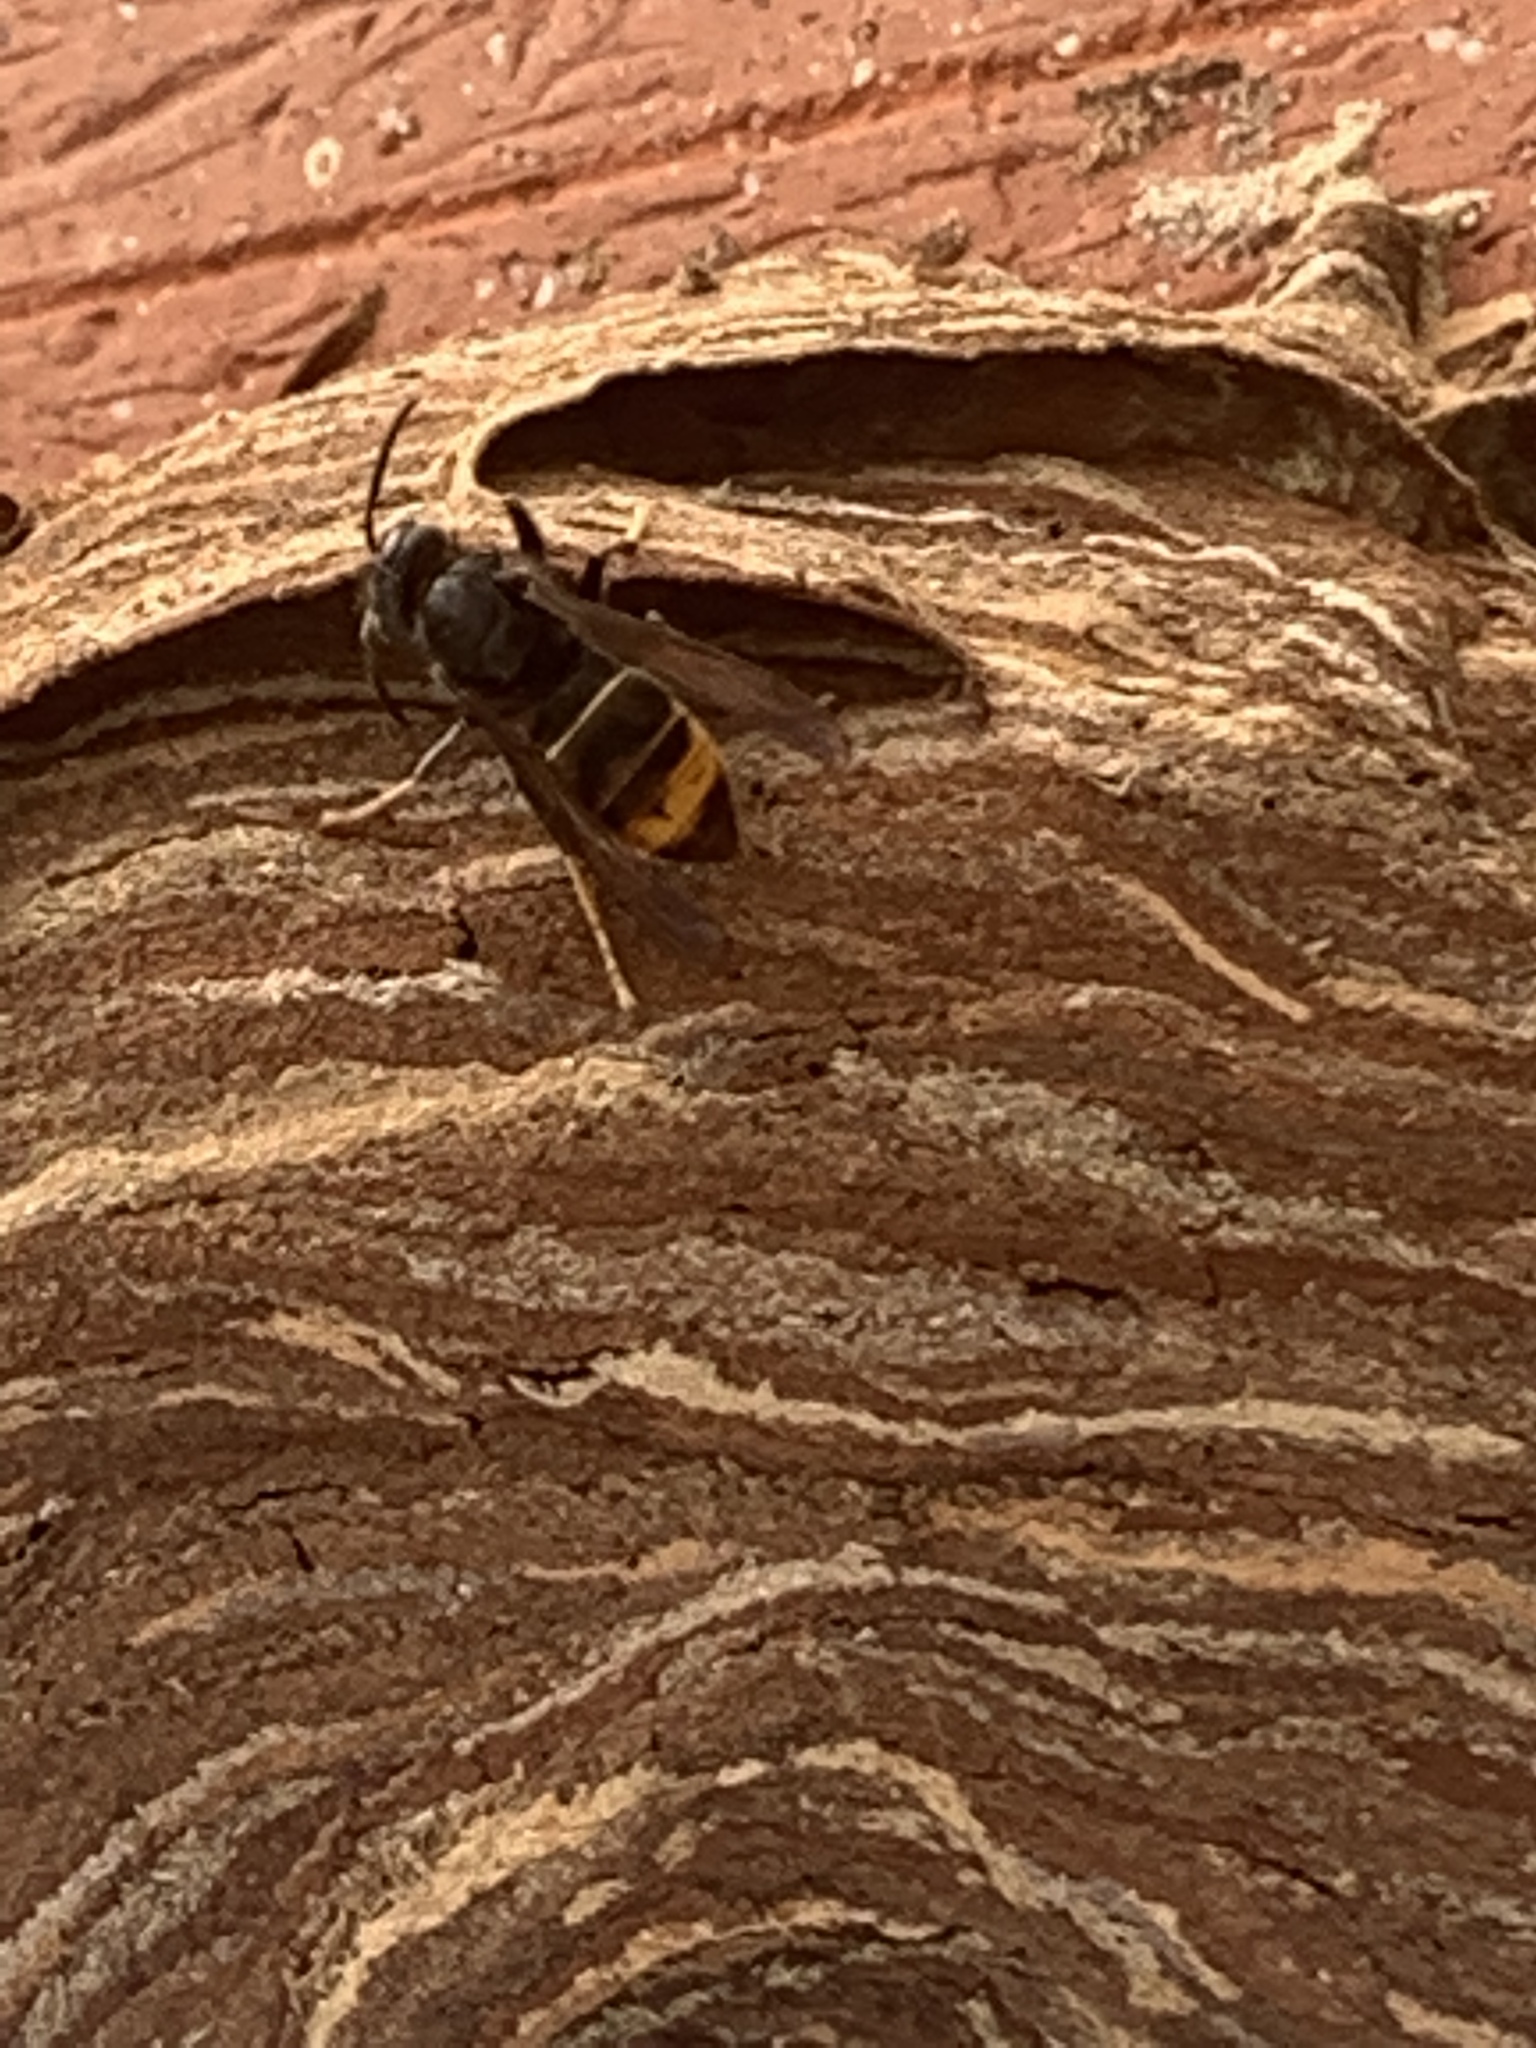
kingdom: Animalia
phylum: Arthropoda
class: Insecta
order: Hymenoptera
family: Vespidae
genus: Vespa
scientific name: Vespa velutina
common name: Asian hornet
